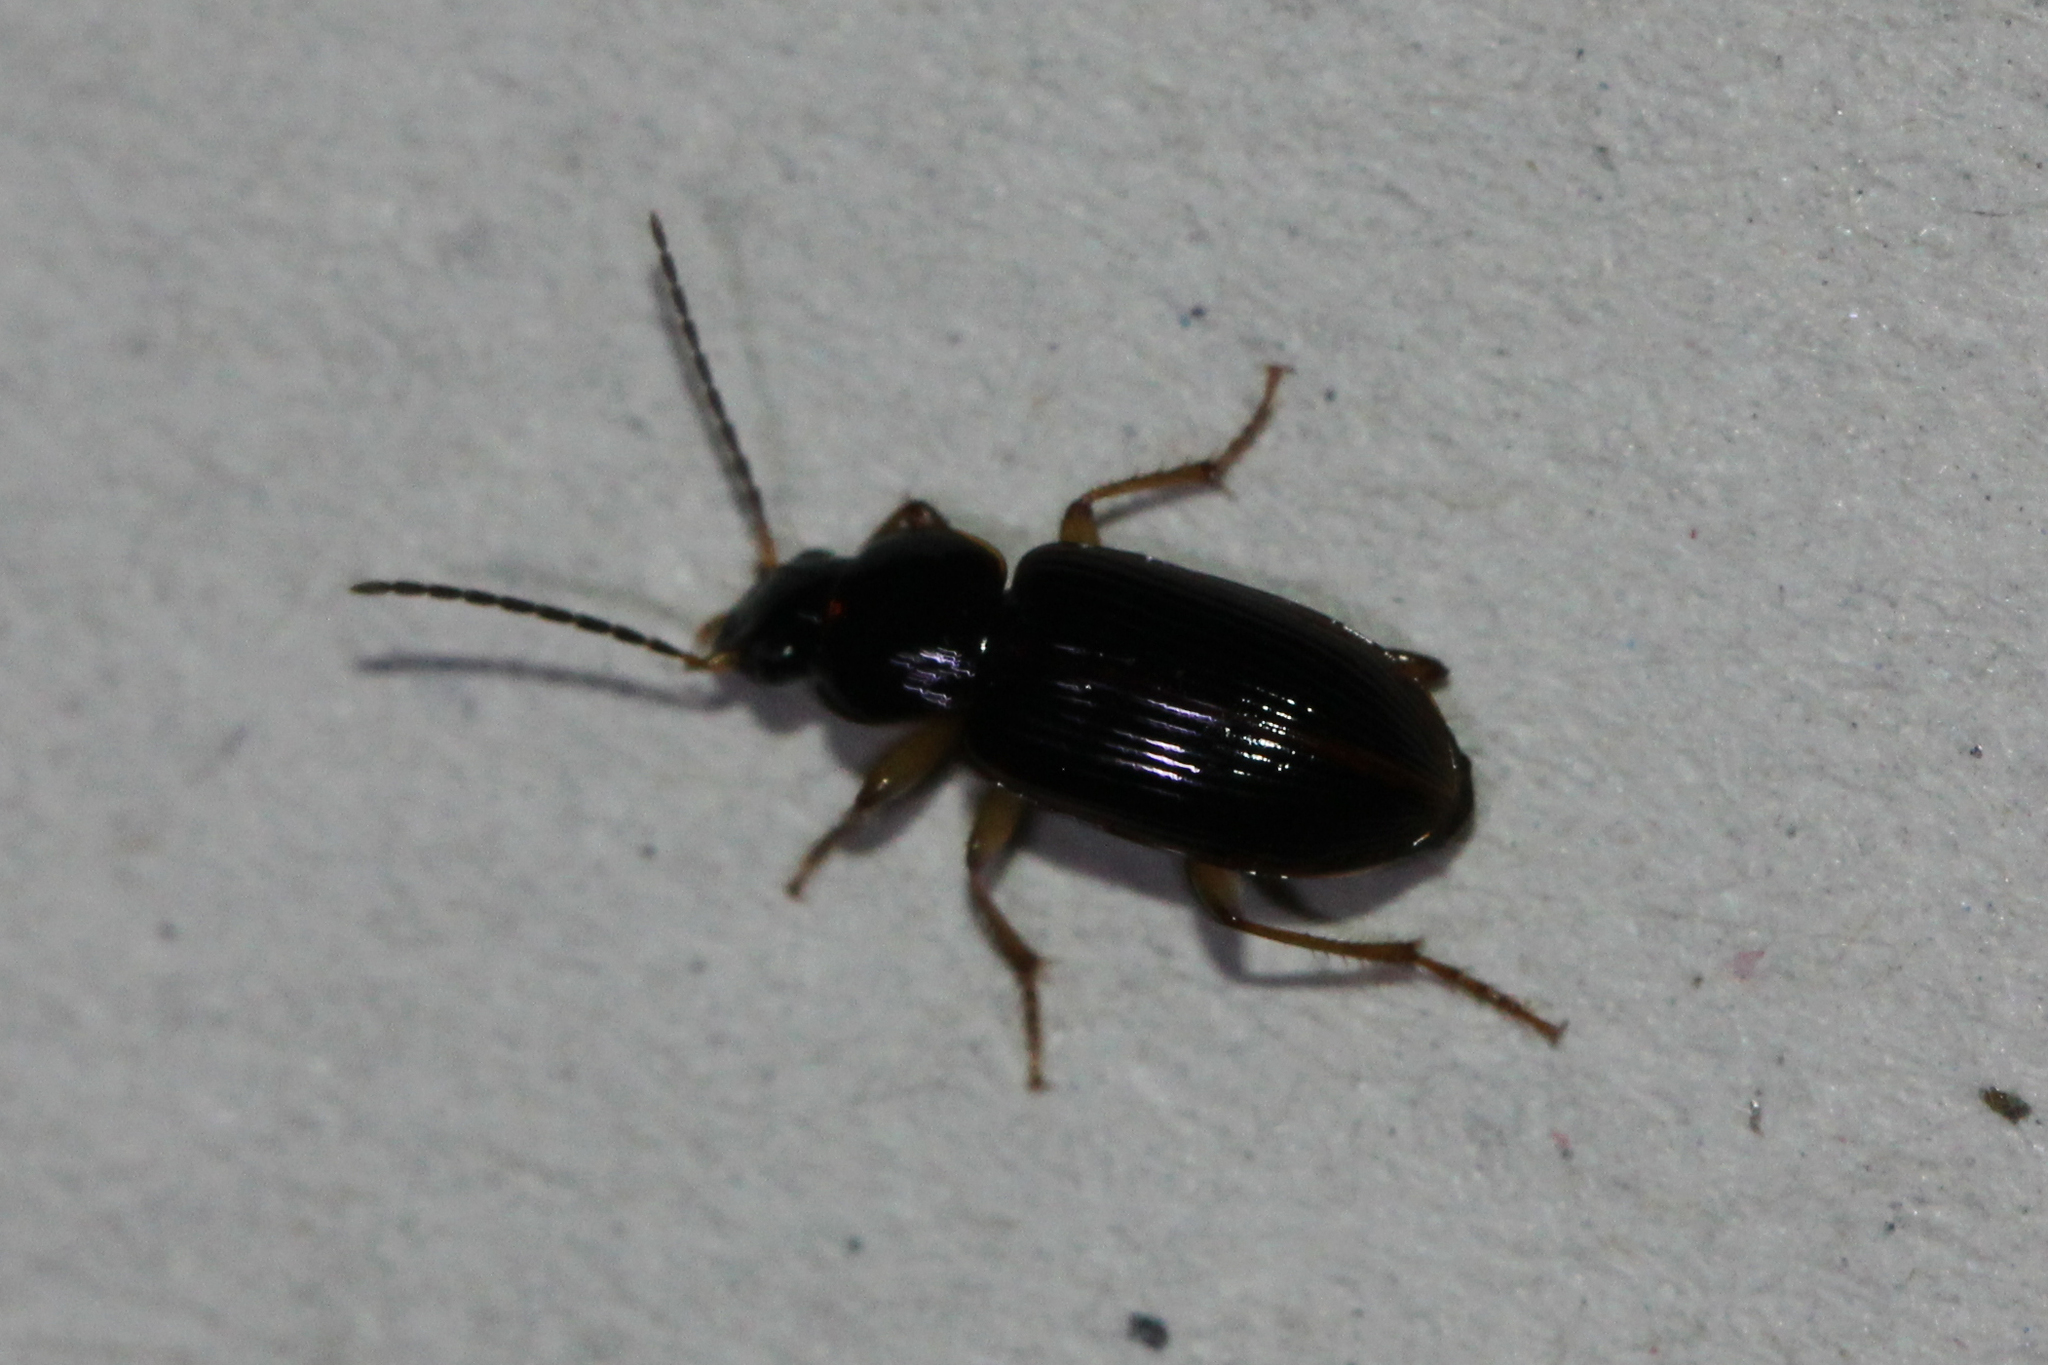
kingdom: Animalia
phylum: Arthropoda
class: Insecta
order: Coleoptera
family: Carabidae
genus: Stenolophus
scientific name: Stenolophus ochropezus
